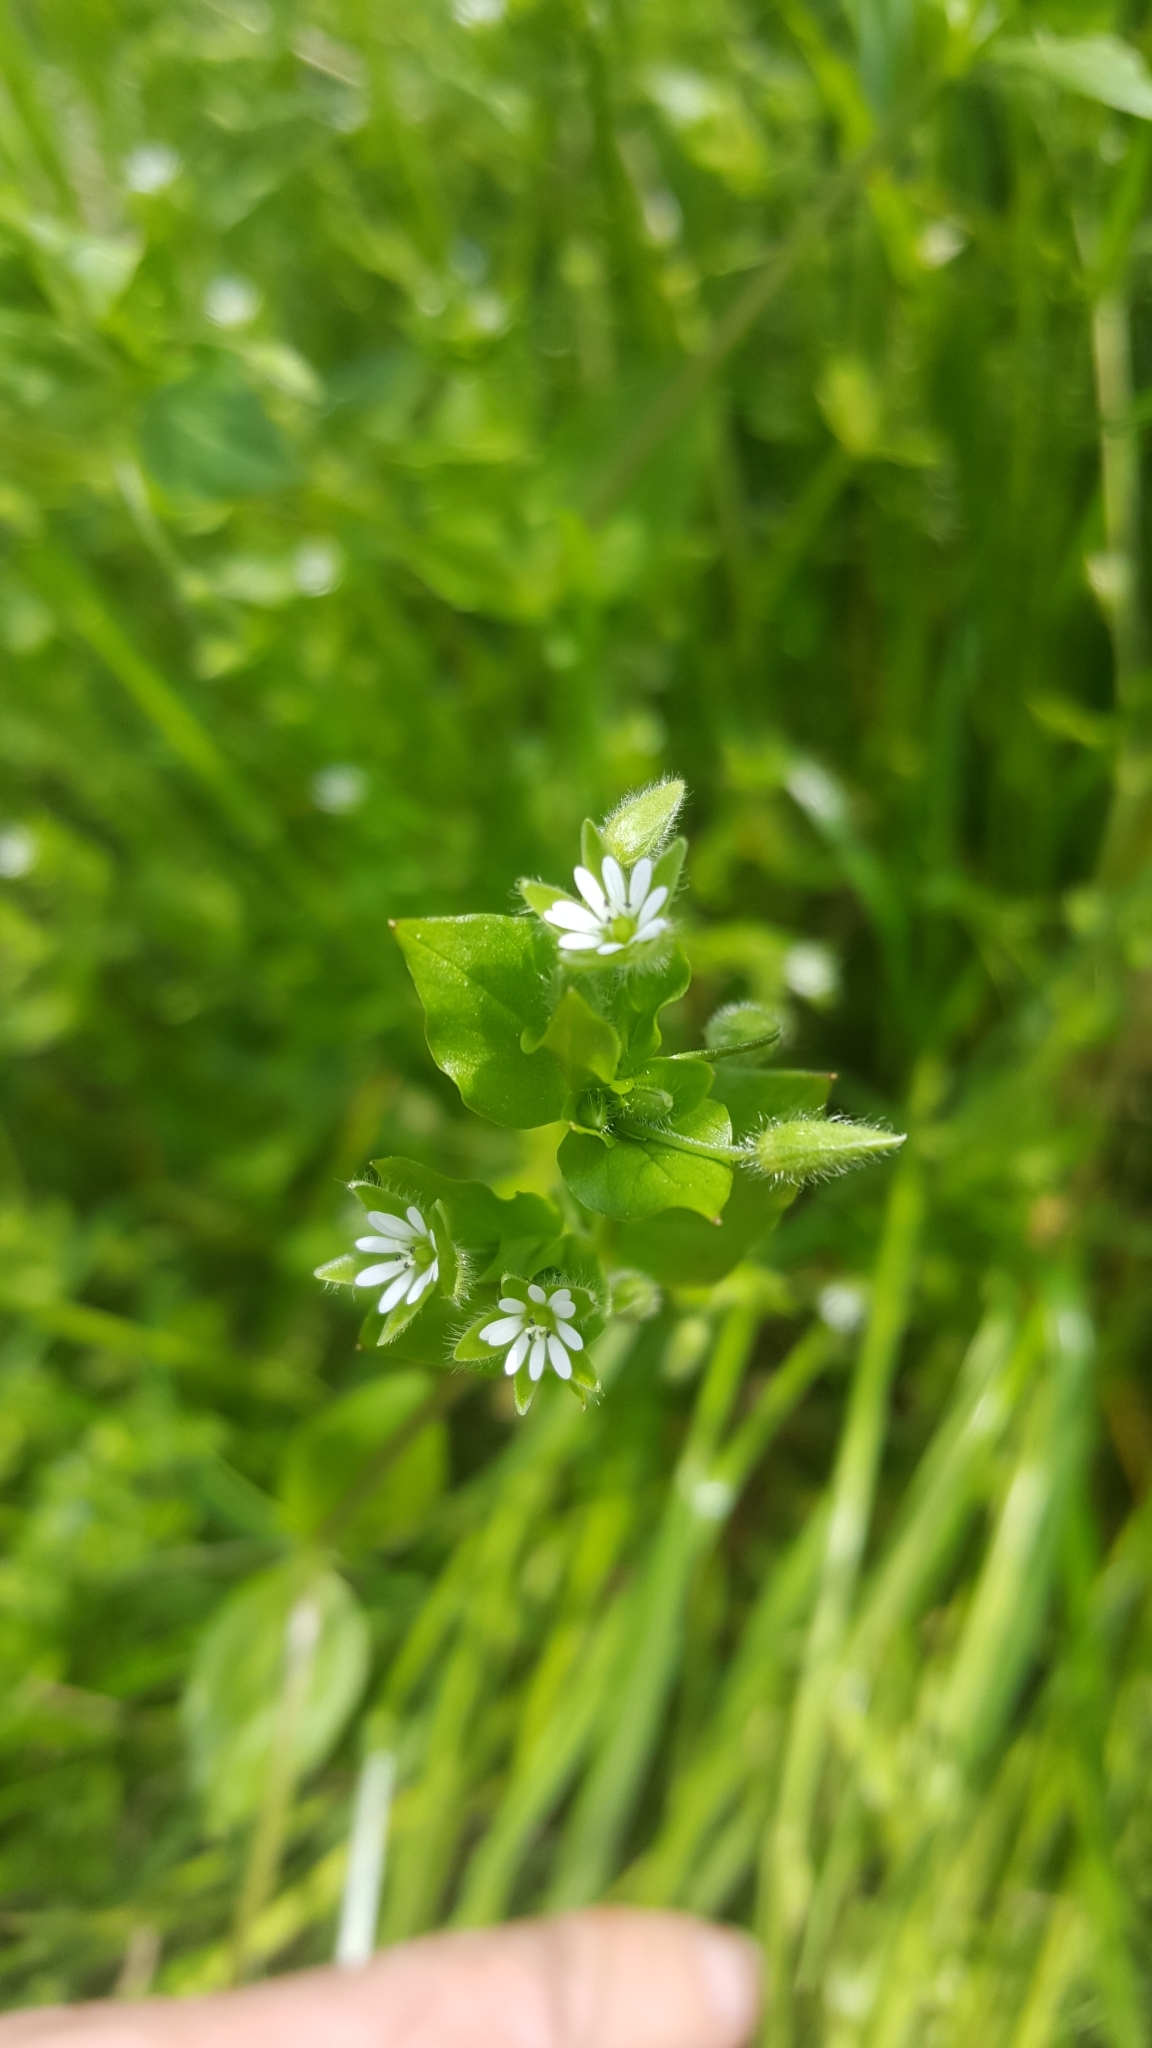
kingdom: Plantae
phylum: Tracheophyta
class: Magnoliopsida
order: Caryophyllales
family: Caryophyllaceae
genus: Stellaria
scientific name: Stellaria media
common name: Common chickweed
